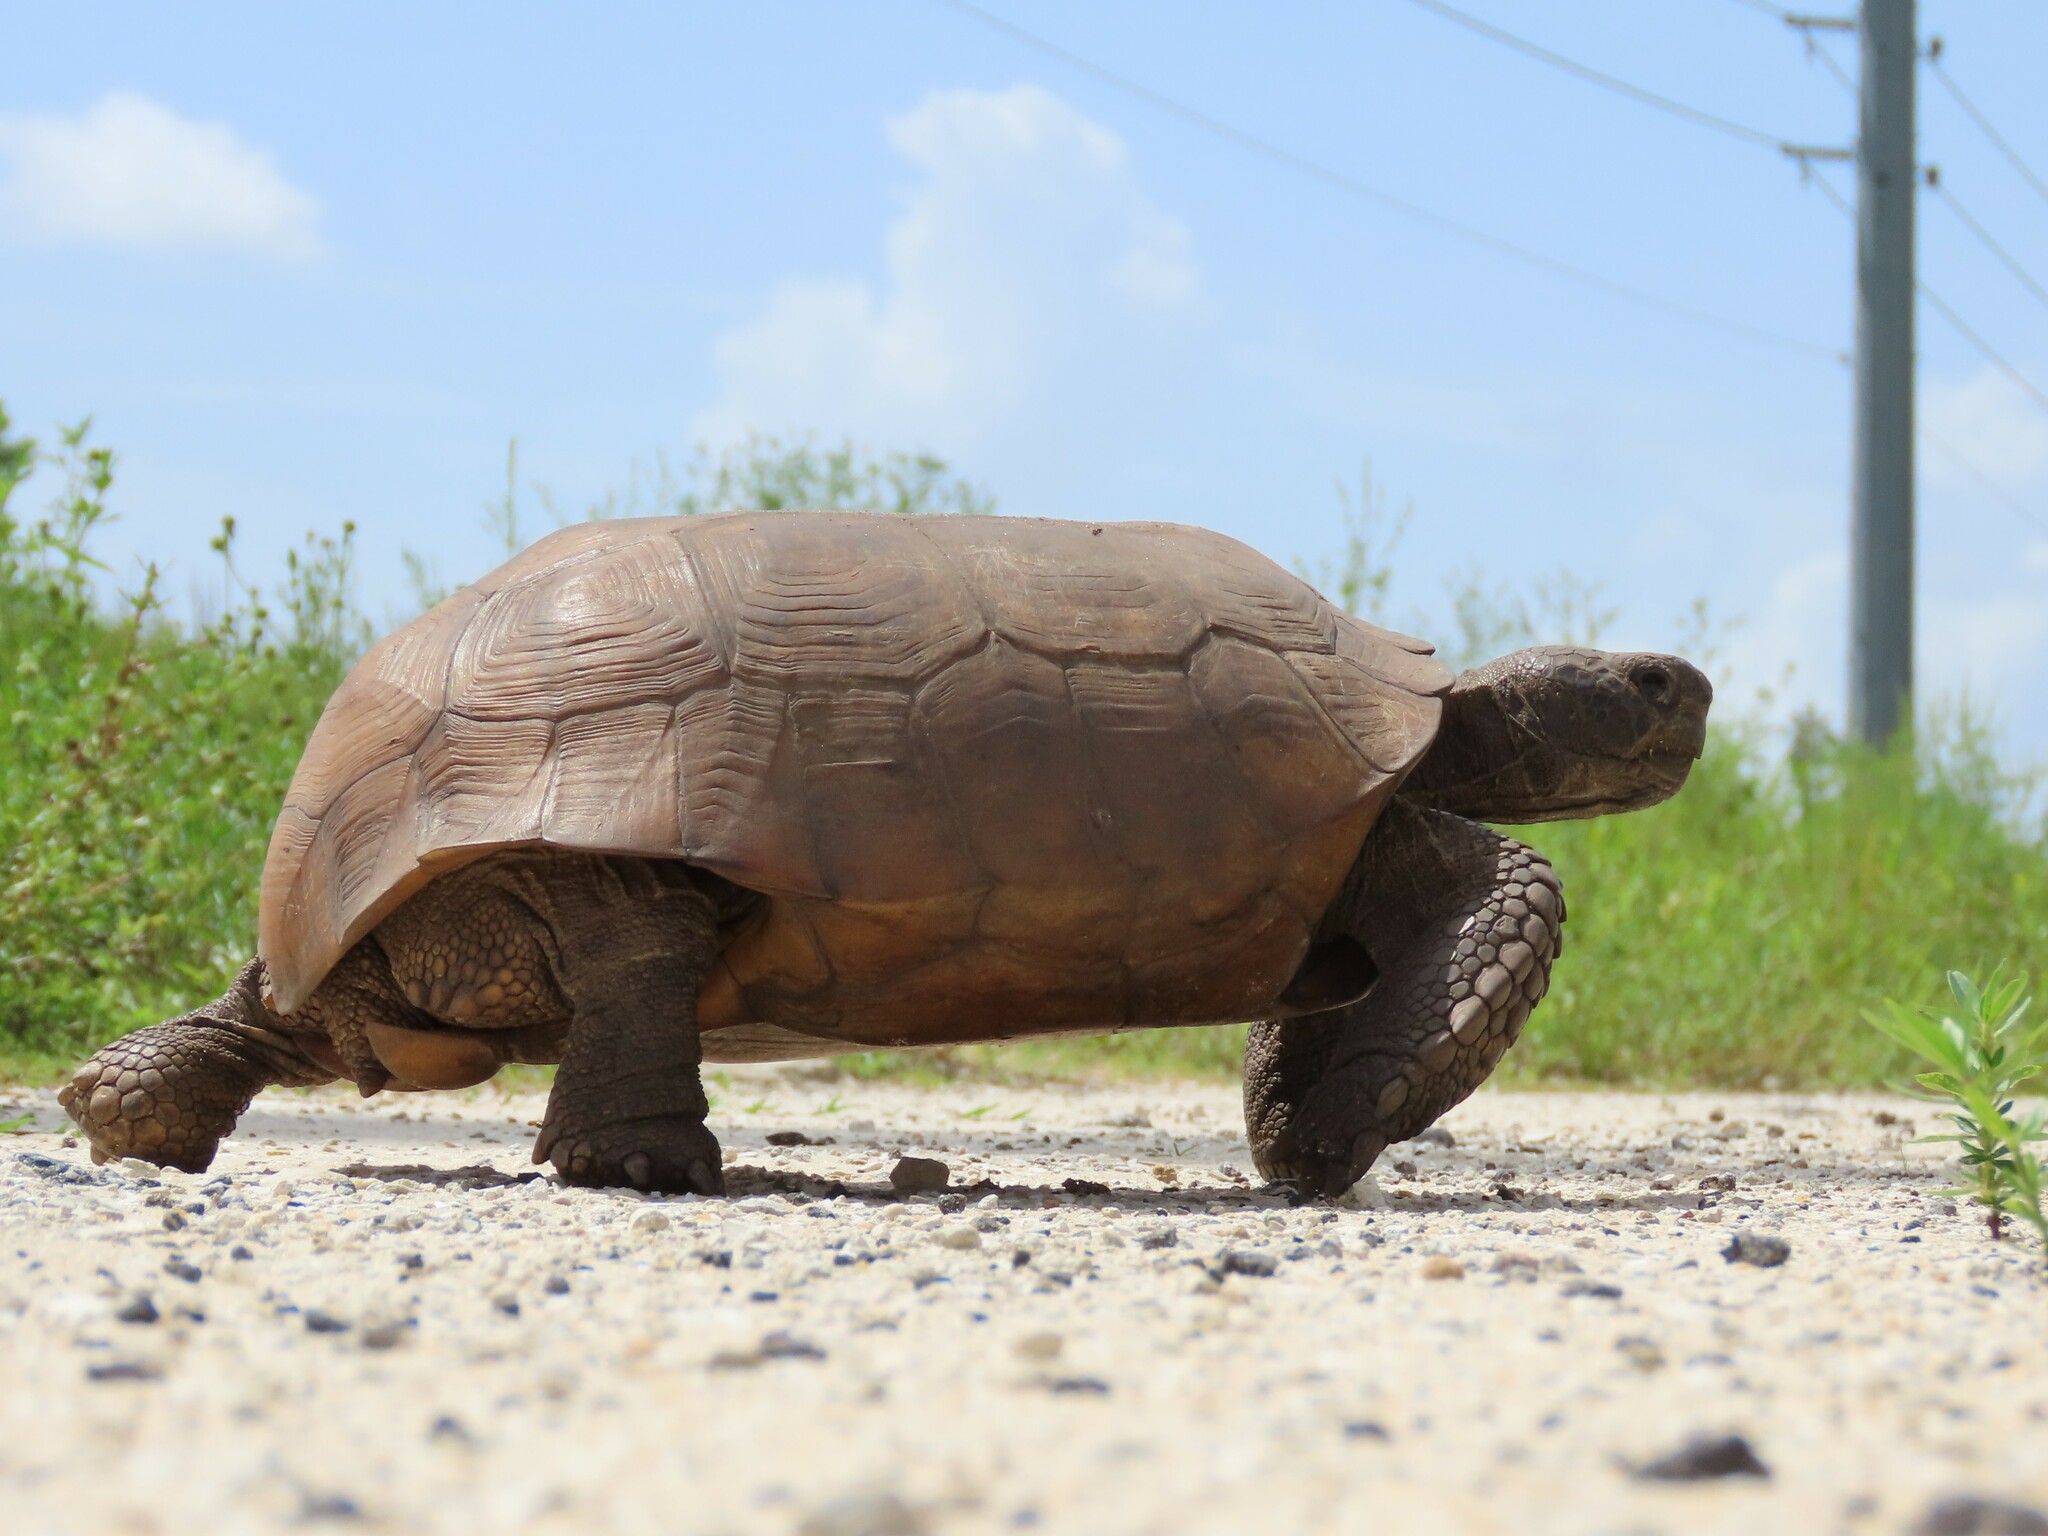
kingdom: Animalia
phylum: Chordata
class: Testudines
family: Testudinidae
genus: Gopherus
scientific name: Gopherus polyphemus
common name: Florida gopher tortoise
